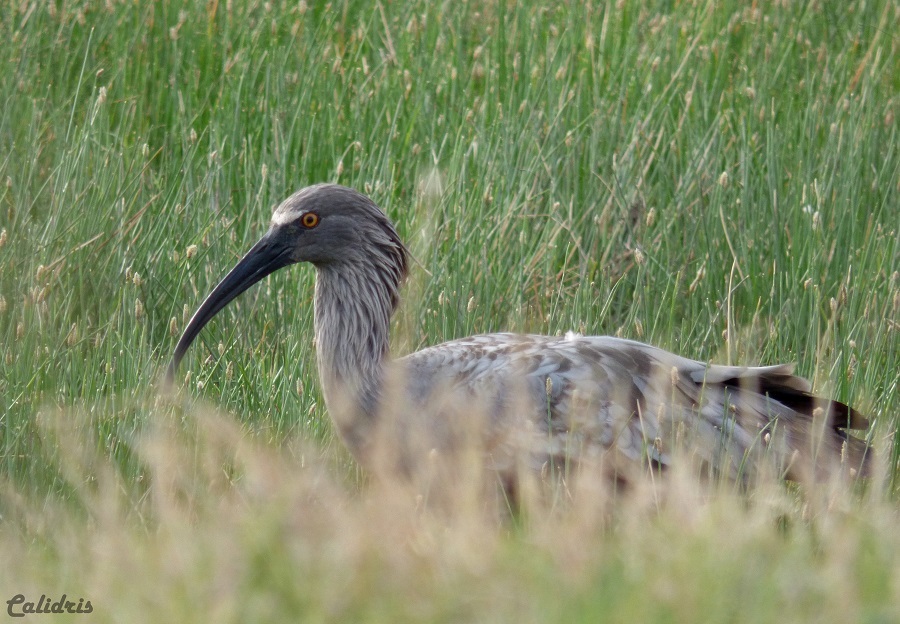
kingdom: Animalia
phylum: Chordata
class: Aves
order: Pelecaniformes
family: Threskiornithidae
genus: Theristicus
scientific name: Theristicus caerulescens
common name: Plumbeous ibis
